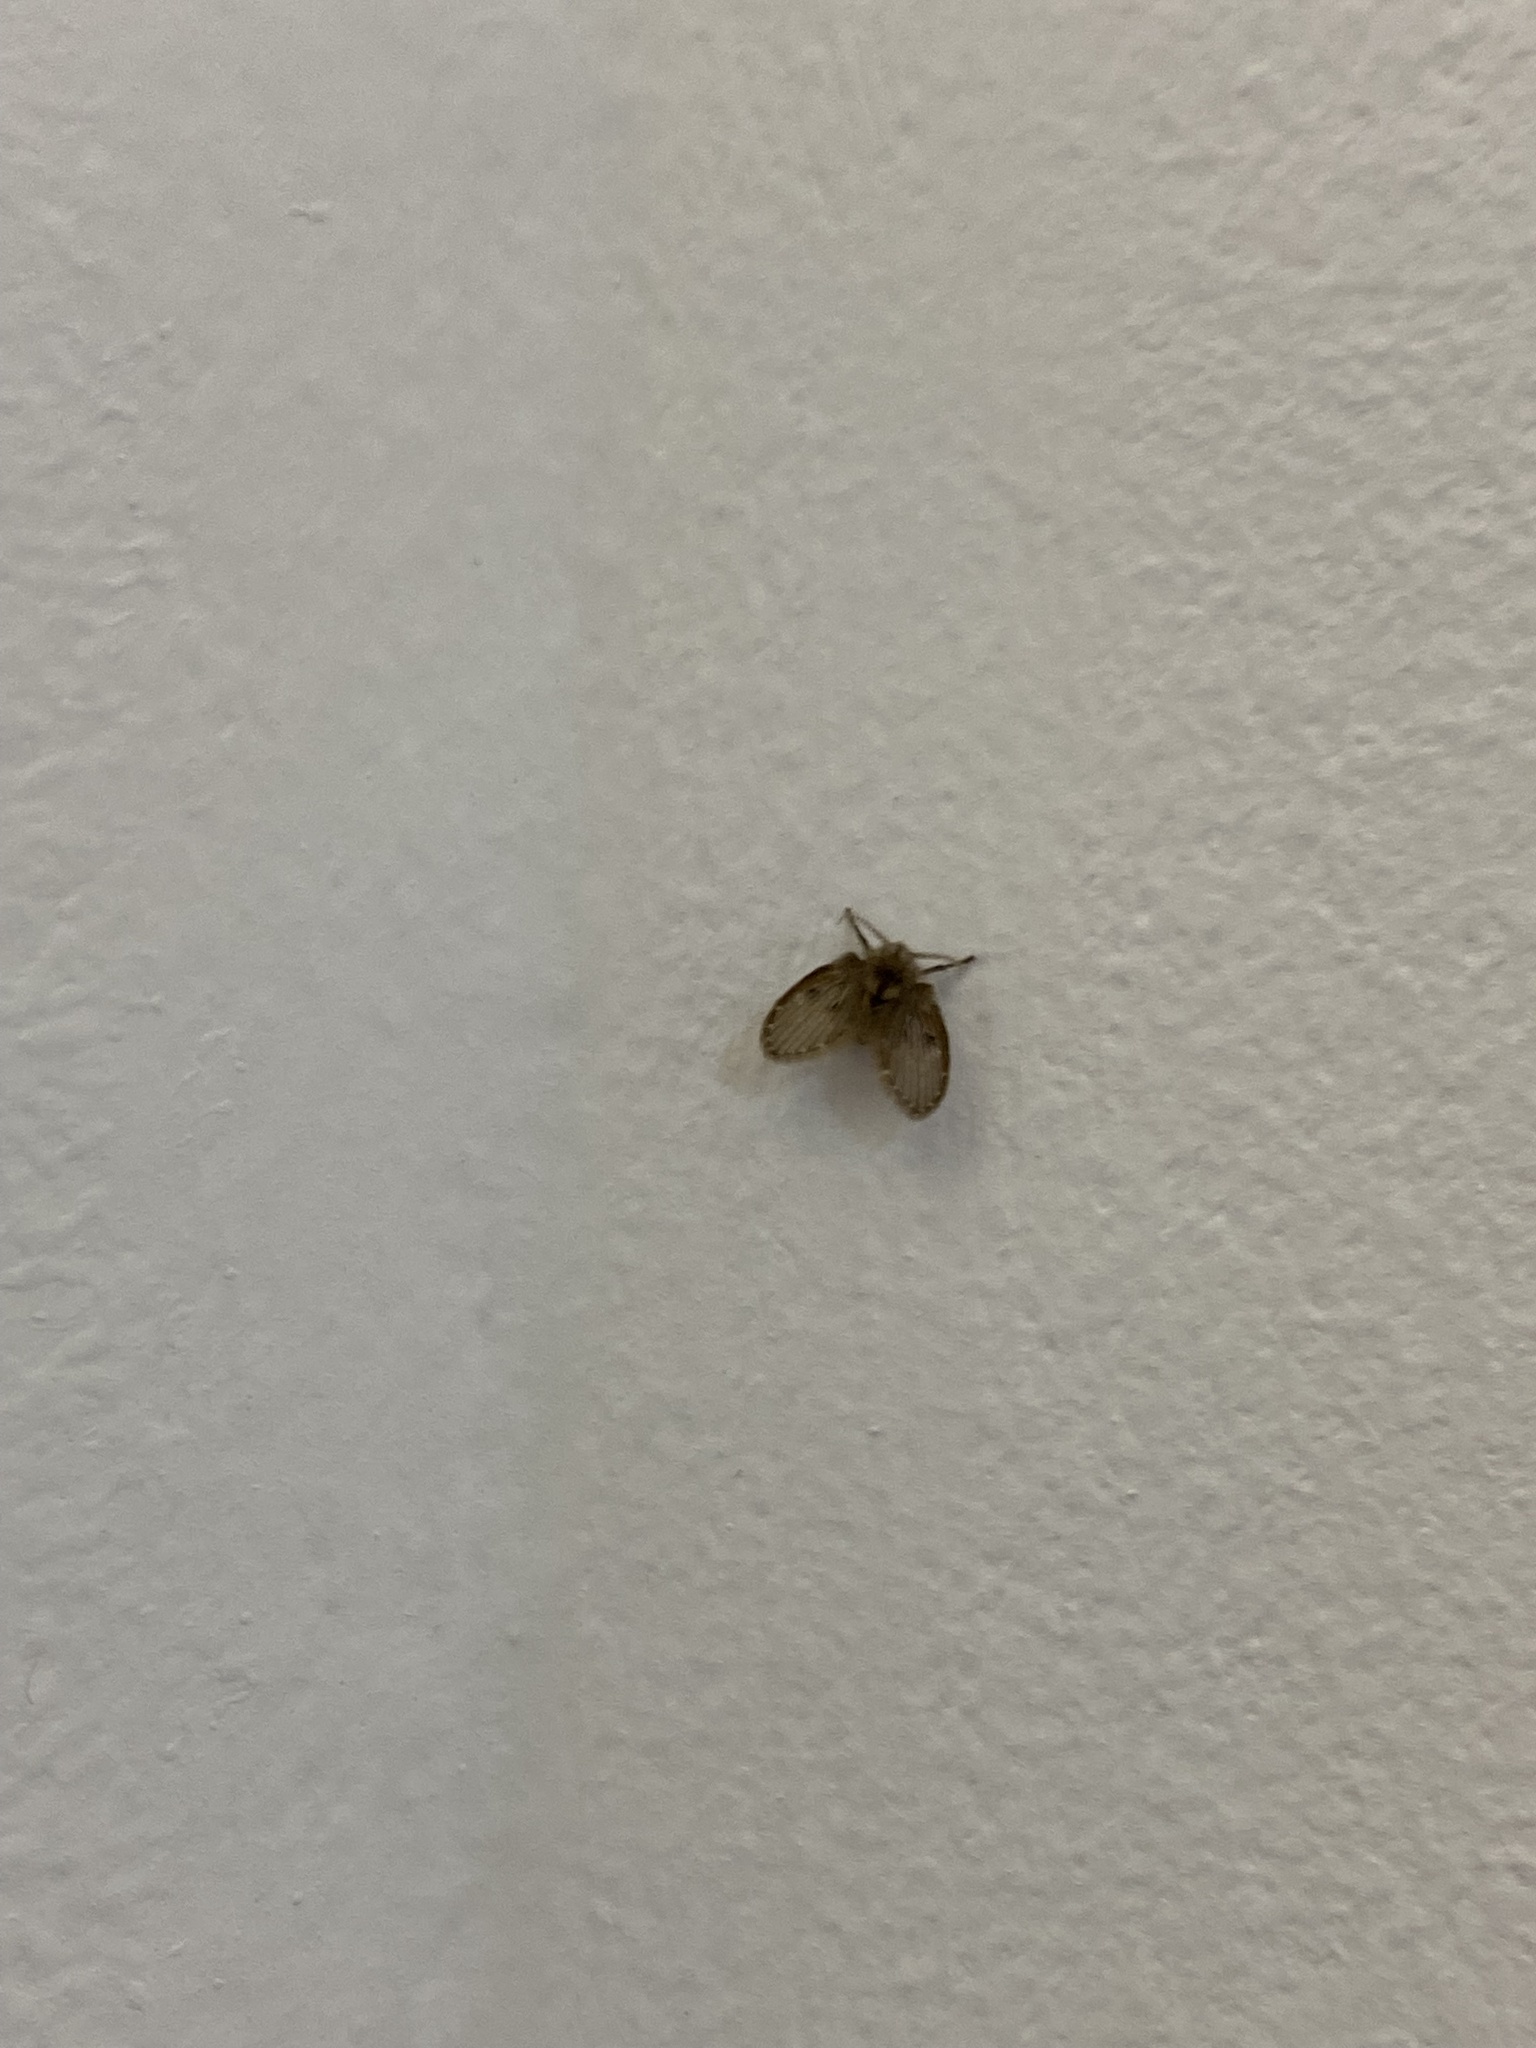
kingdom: Animalia
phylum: Arthropoda
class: Insecta
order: Diptera
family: Psychodidae
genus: Clogmia
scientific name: Clogmia albipunctatus
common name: White-spotted moth fly
